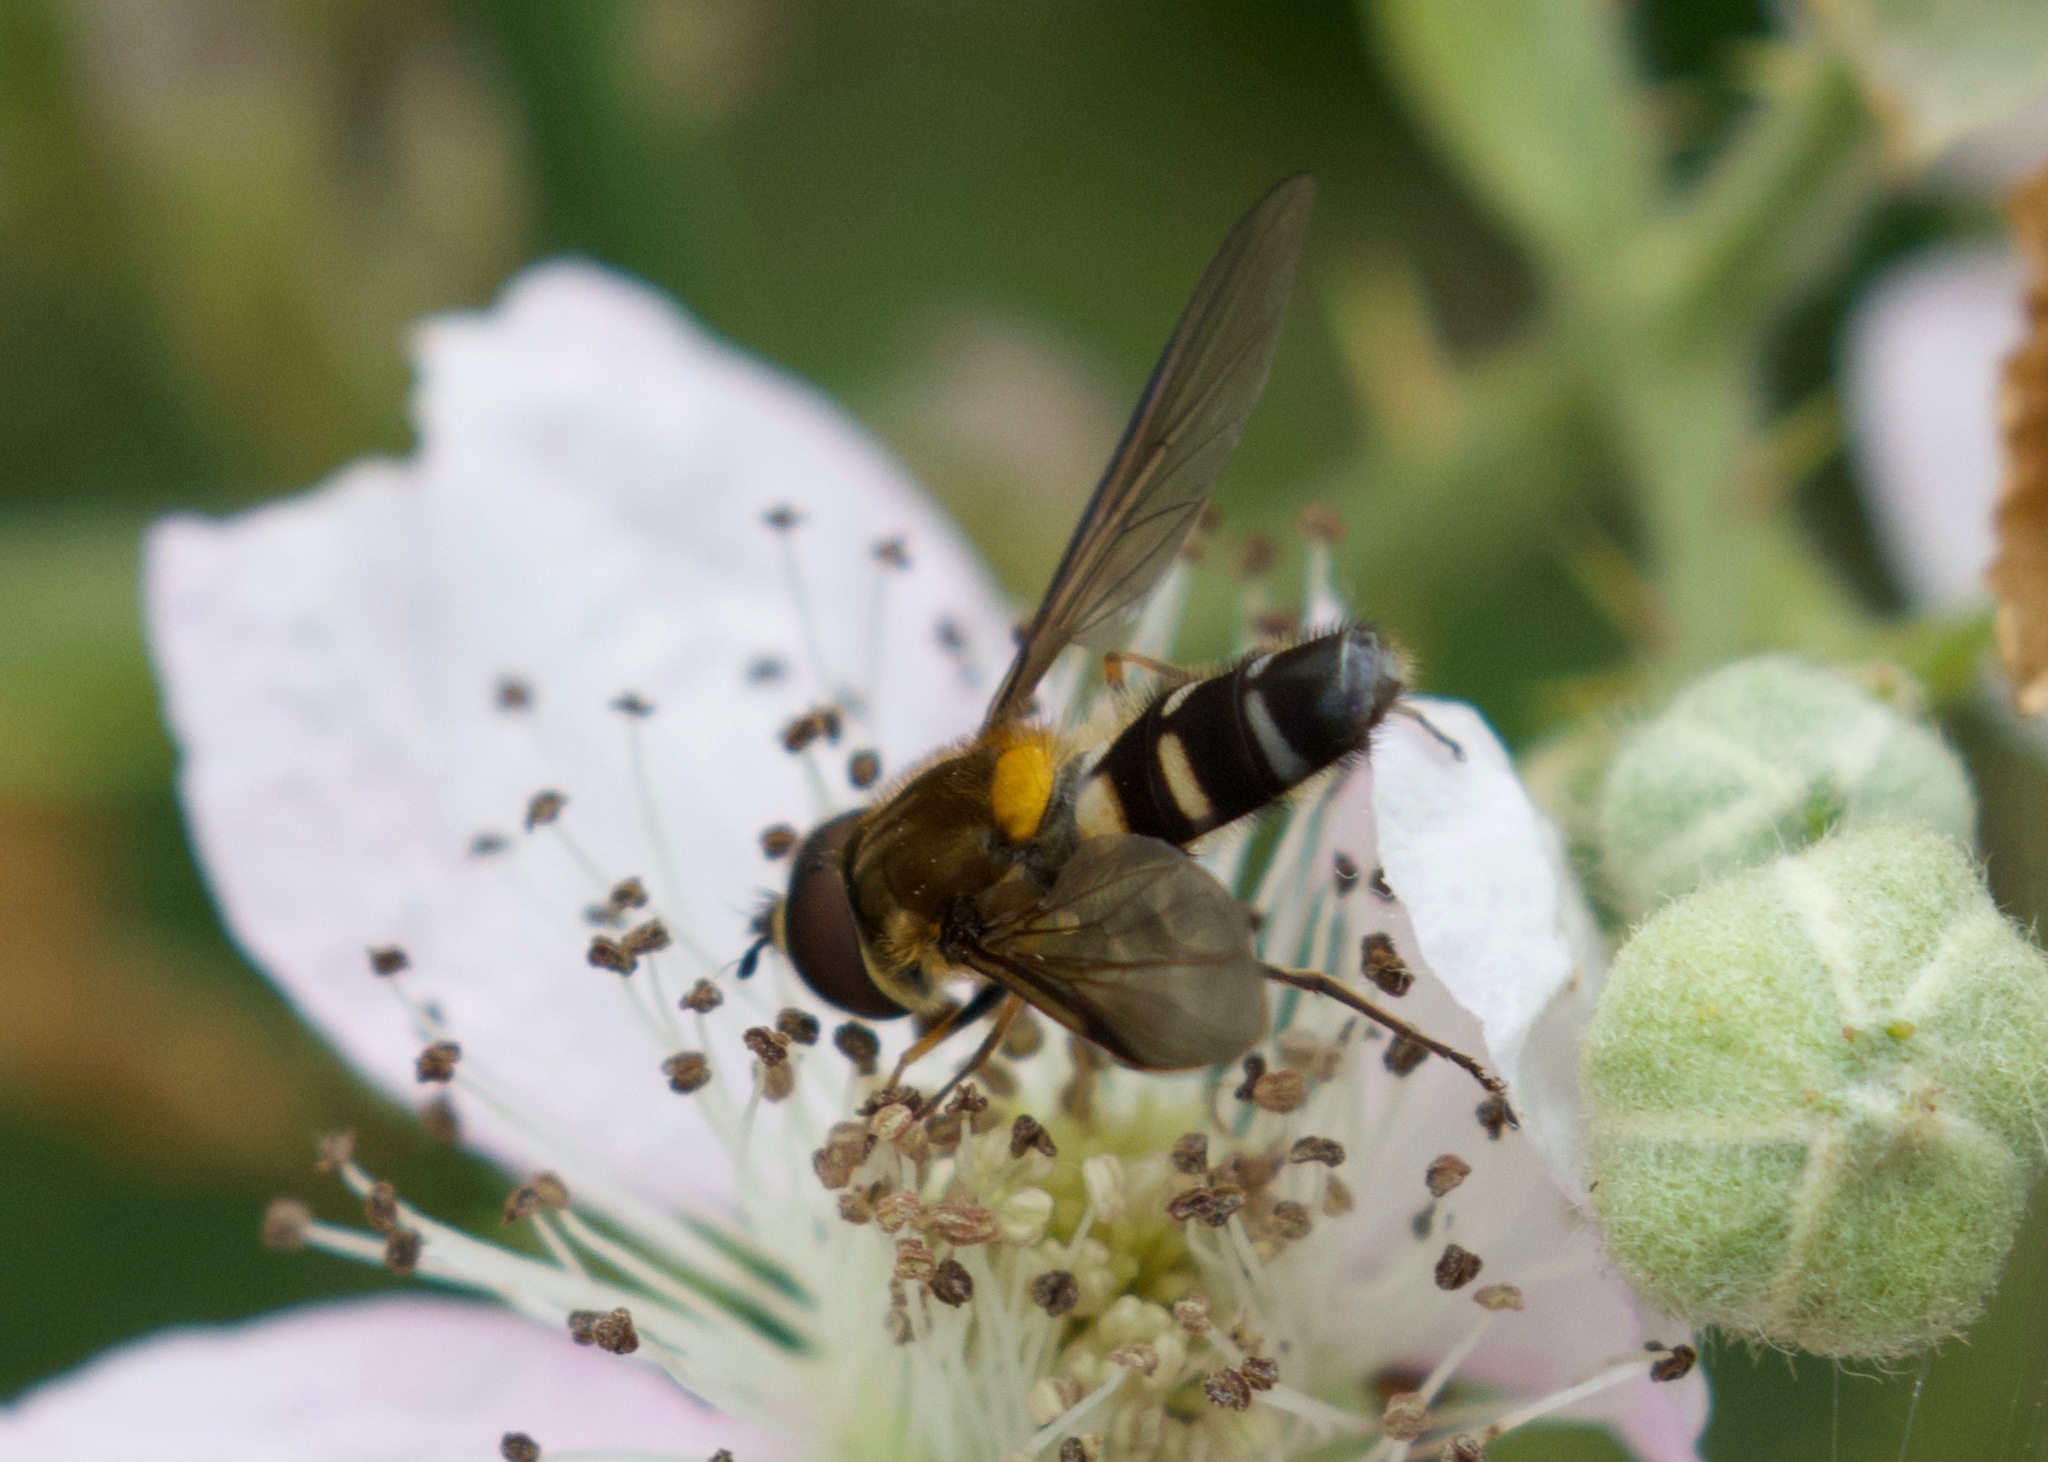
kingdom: Animalia
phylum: Arthropoda
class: Insecta
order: Diptera
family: Syrphidae
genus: Leucozona
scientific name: Leucozona glaucia
